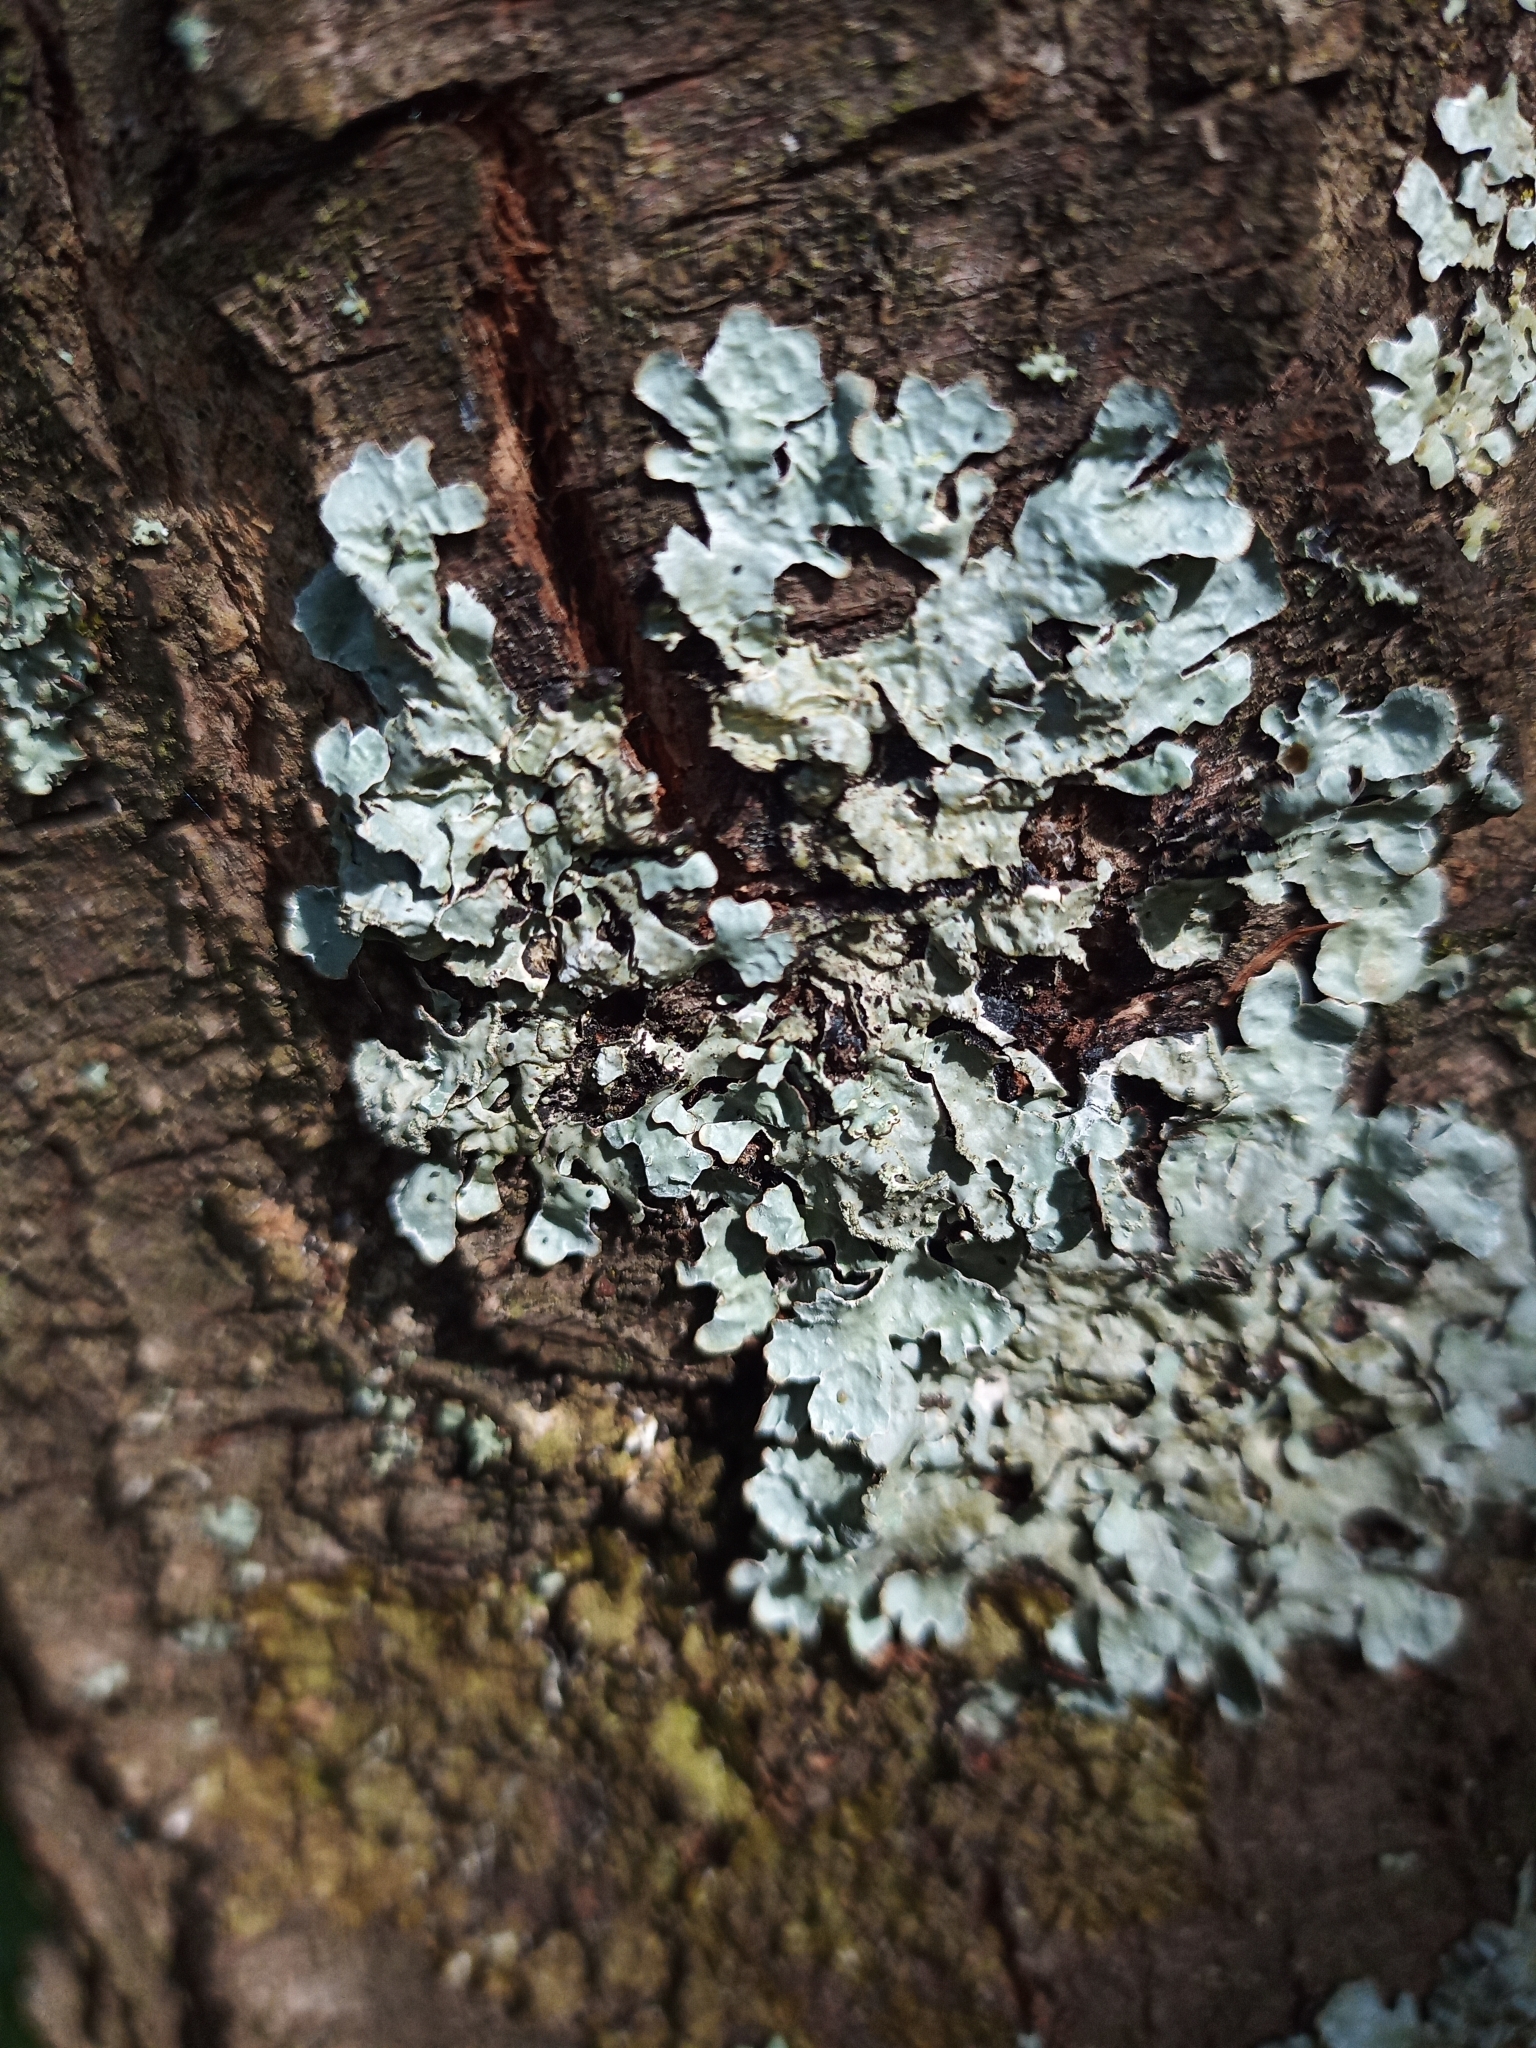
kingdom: Fungi
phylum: Ascomycota
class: Lecanoromycetes
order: Lecanorales
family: Parmeliaceae
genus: Parmelia
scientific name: Parmelia sulcata
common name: Netted shield lichen
